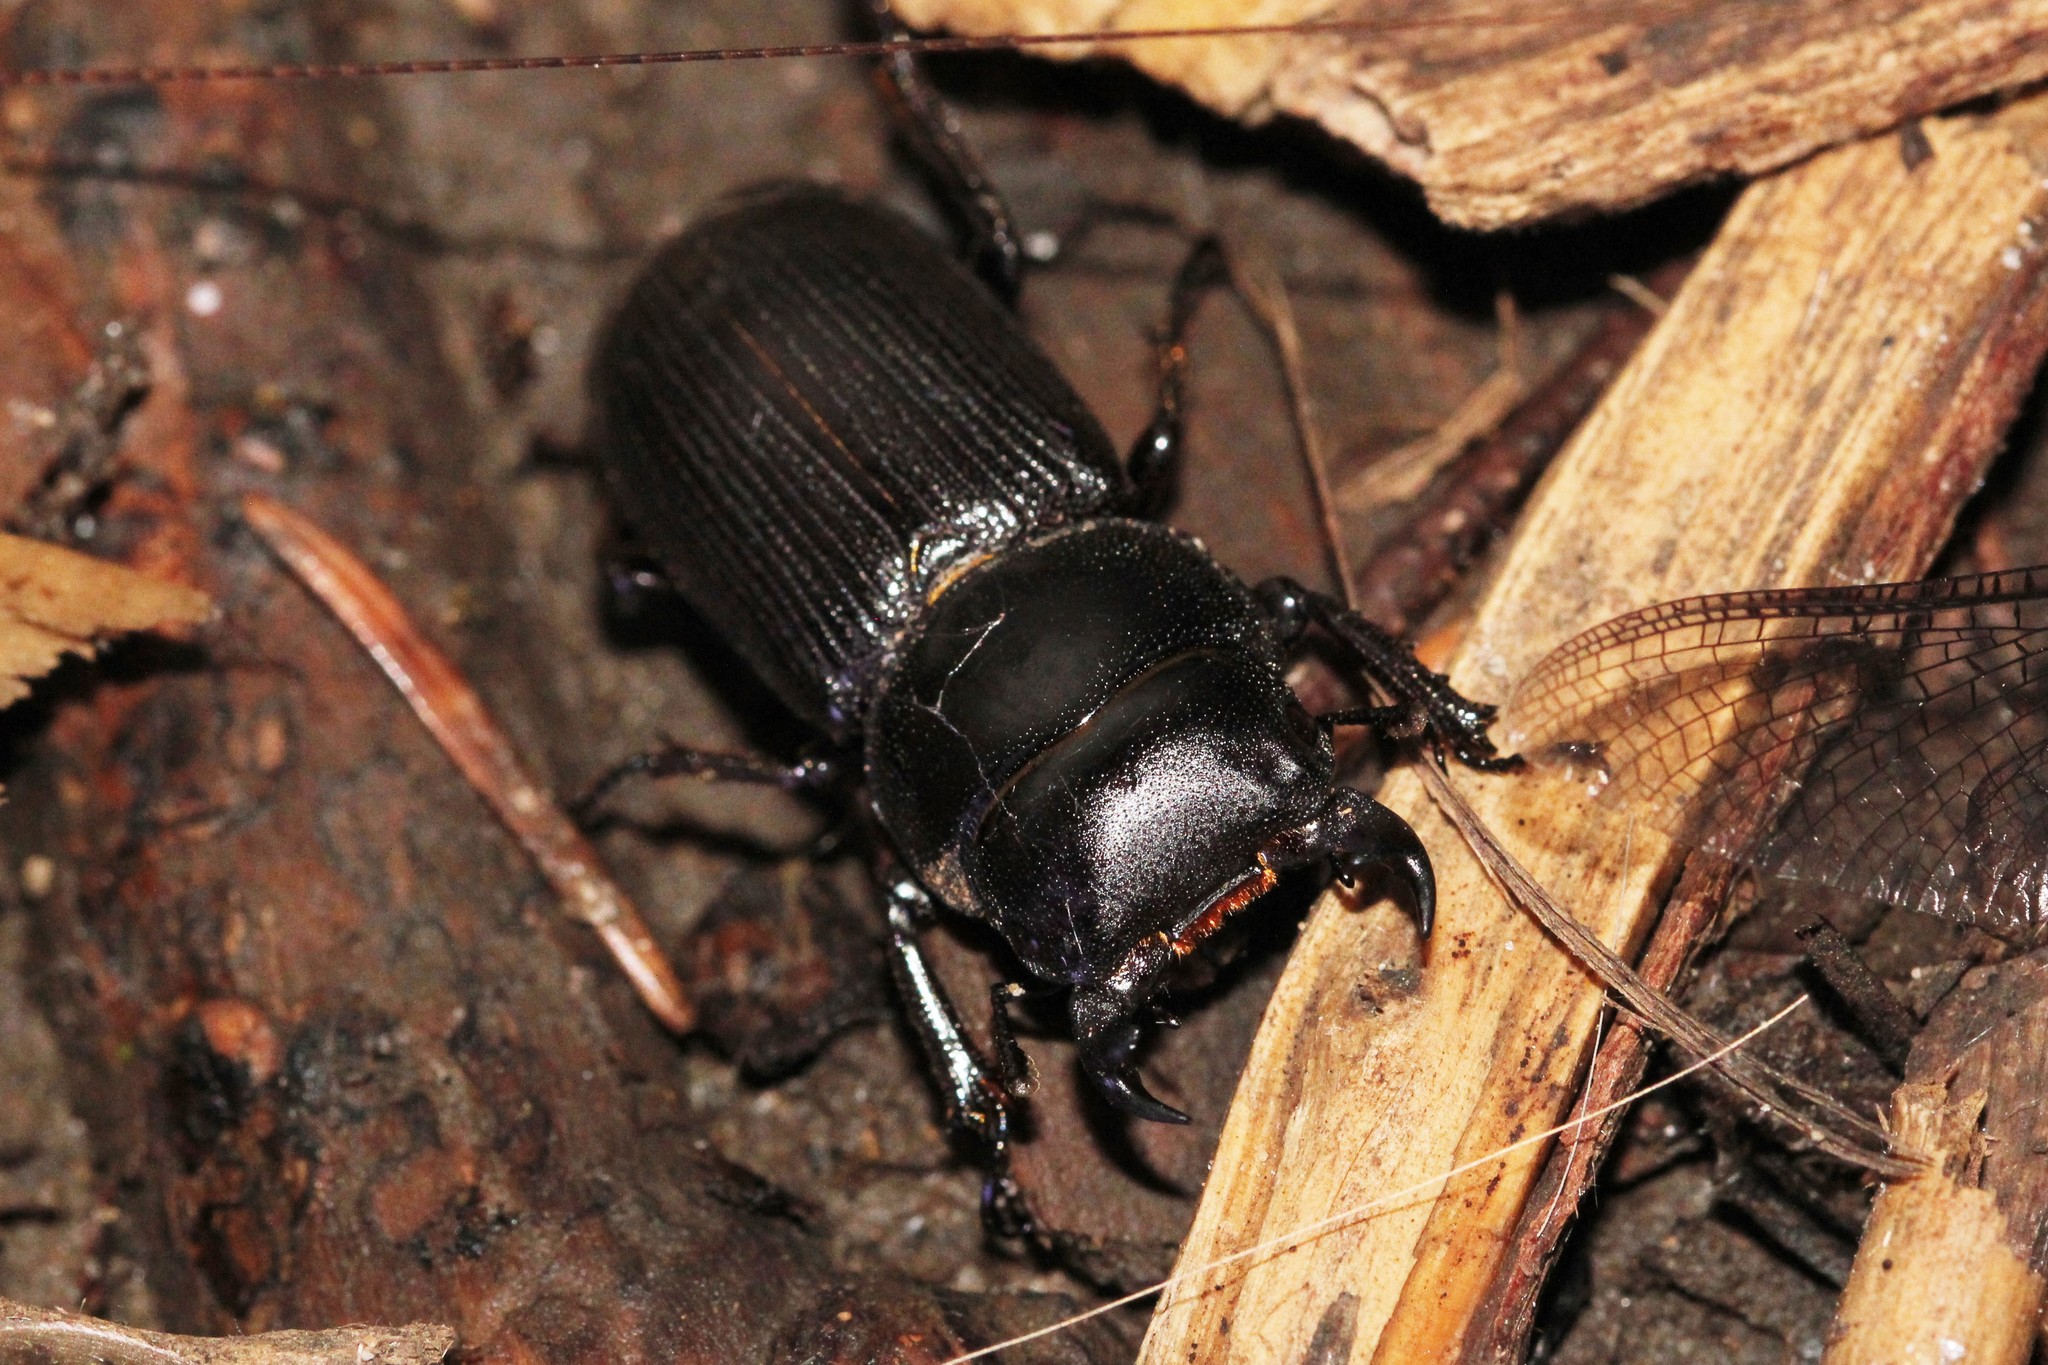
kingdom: Animalia
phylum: Arthropoda
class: Insecta
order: Coleoptera
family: Lucanidae
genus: Dorcus
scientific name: Dorcus parallelus
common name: Antelope beetle
